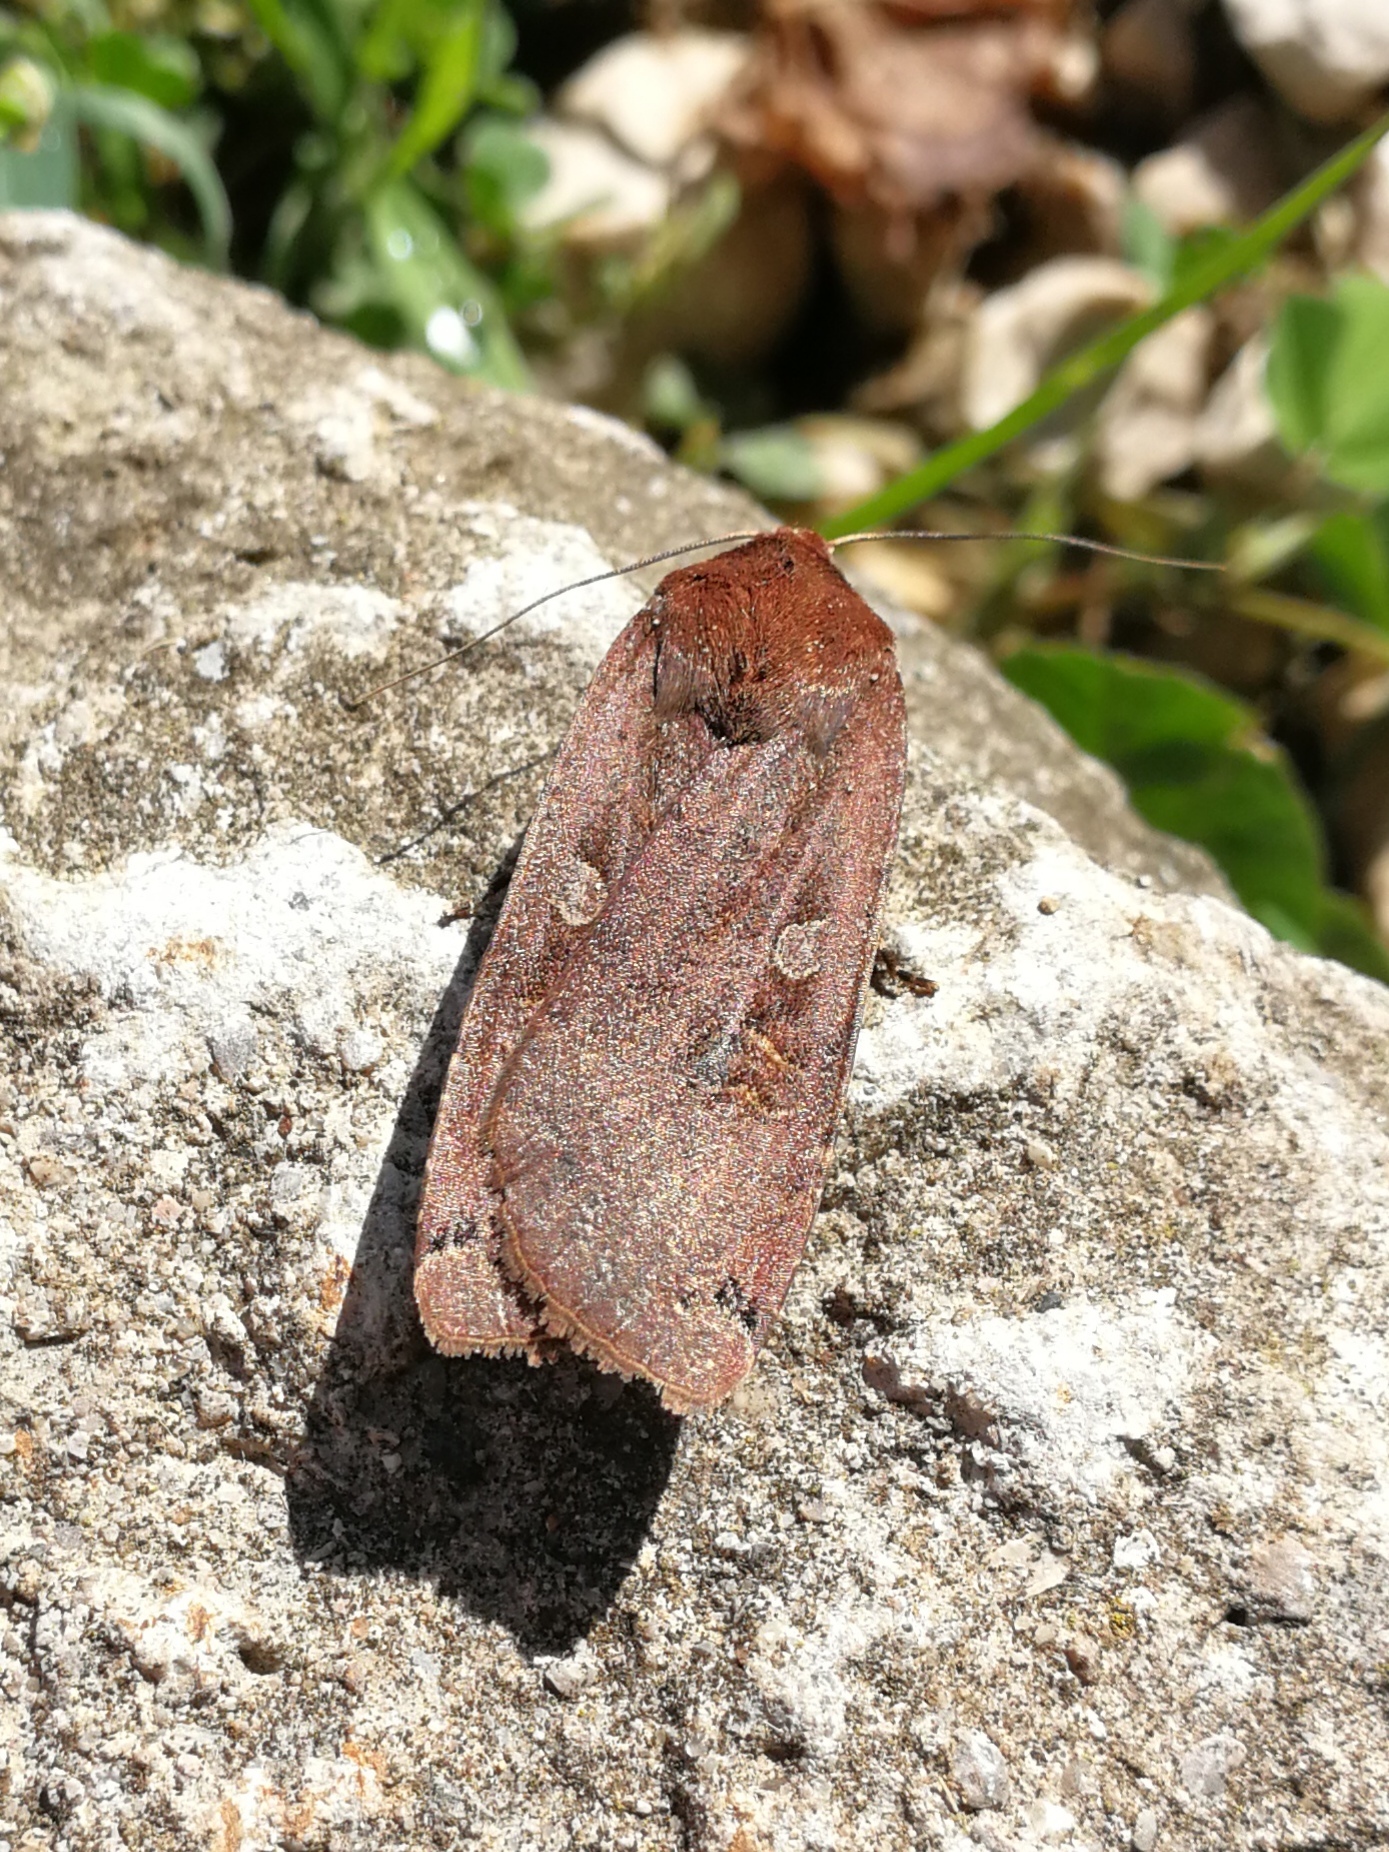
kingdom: Animalia
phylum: Arthropoda
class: Insecta
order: Lepidoptera
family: Noctuidae
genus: Noctua
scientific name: Noctua pronuba
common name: Large yellow underwing
